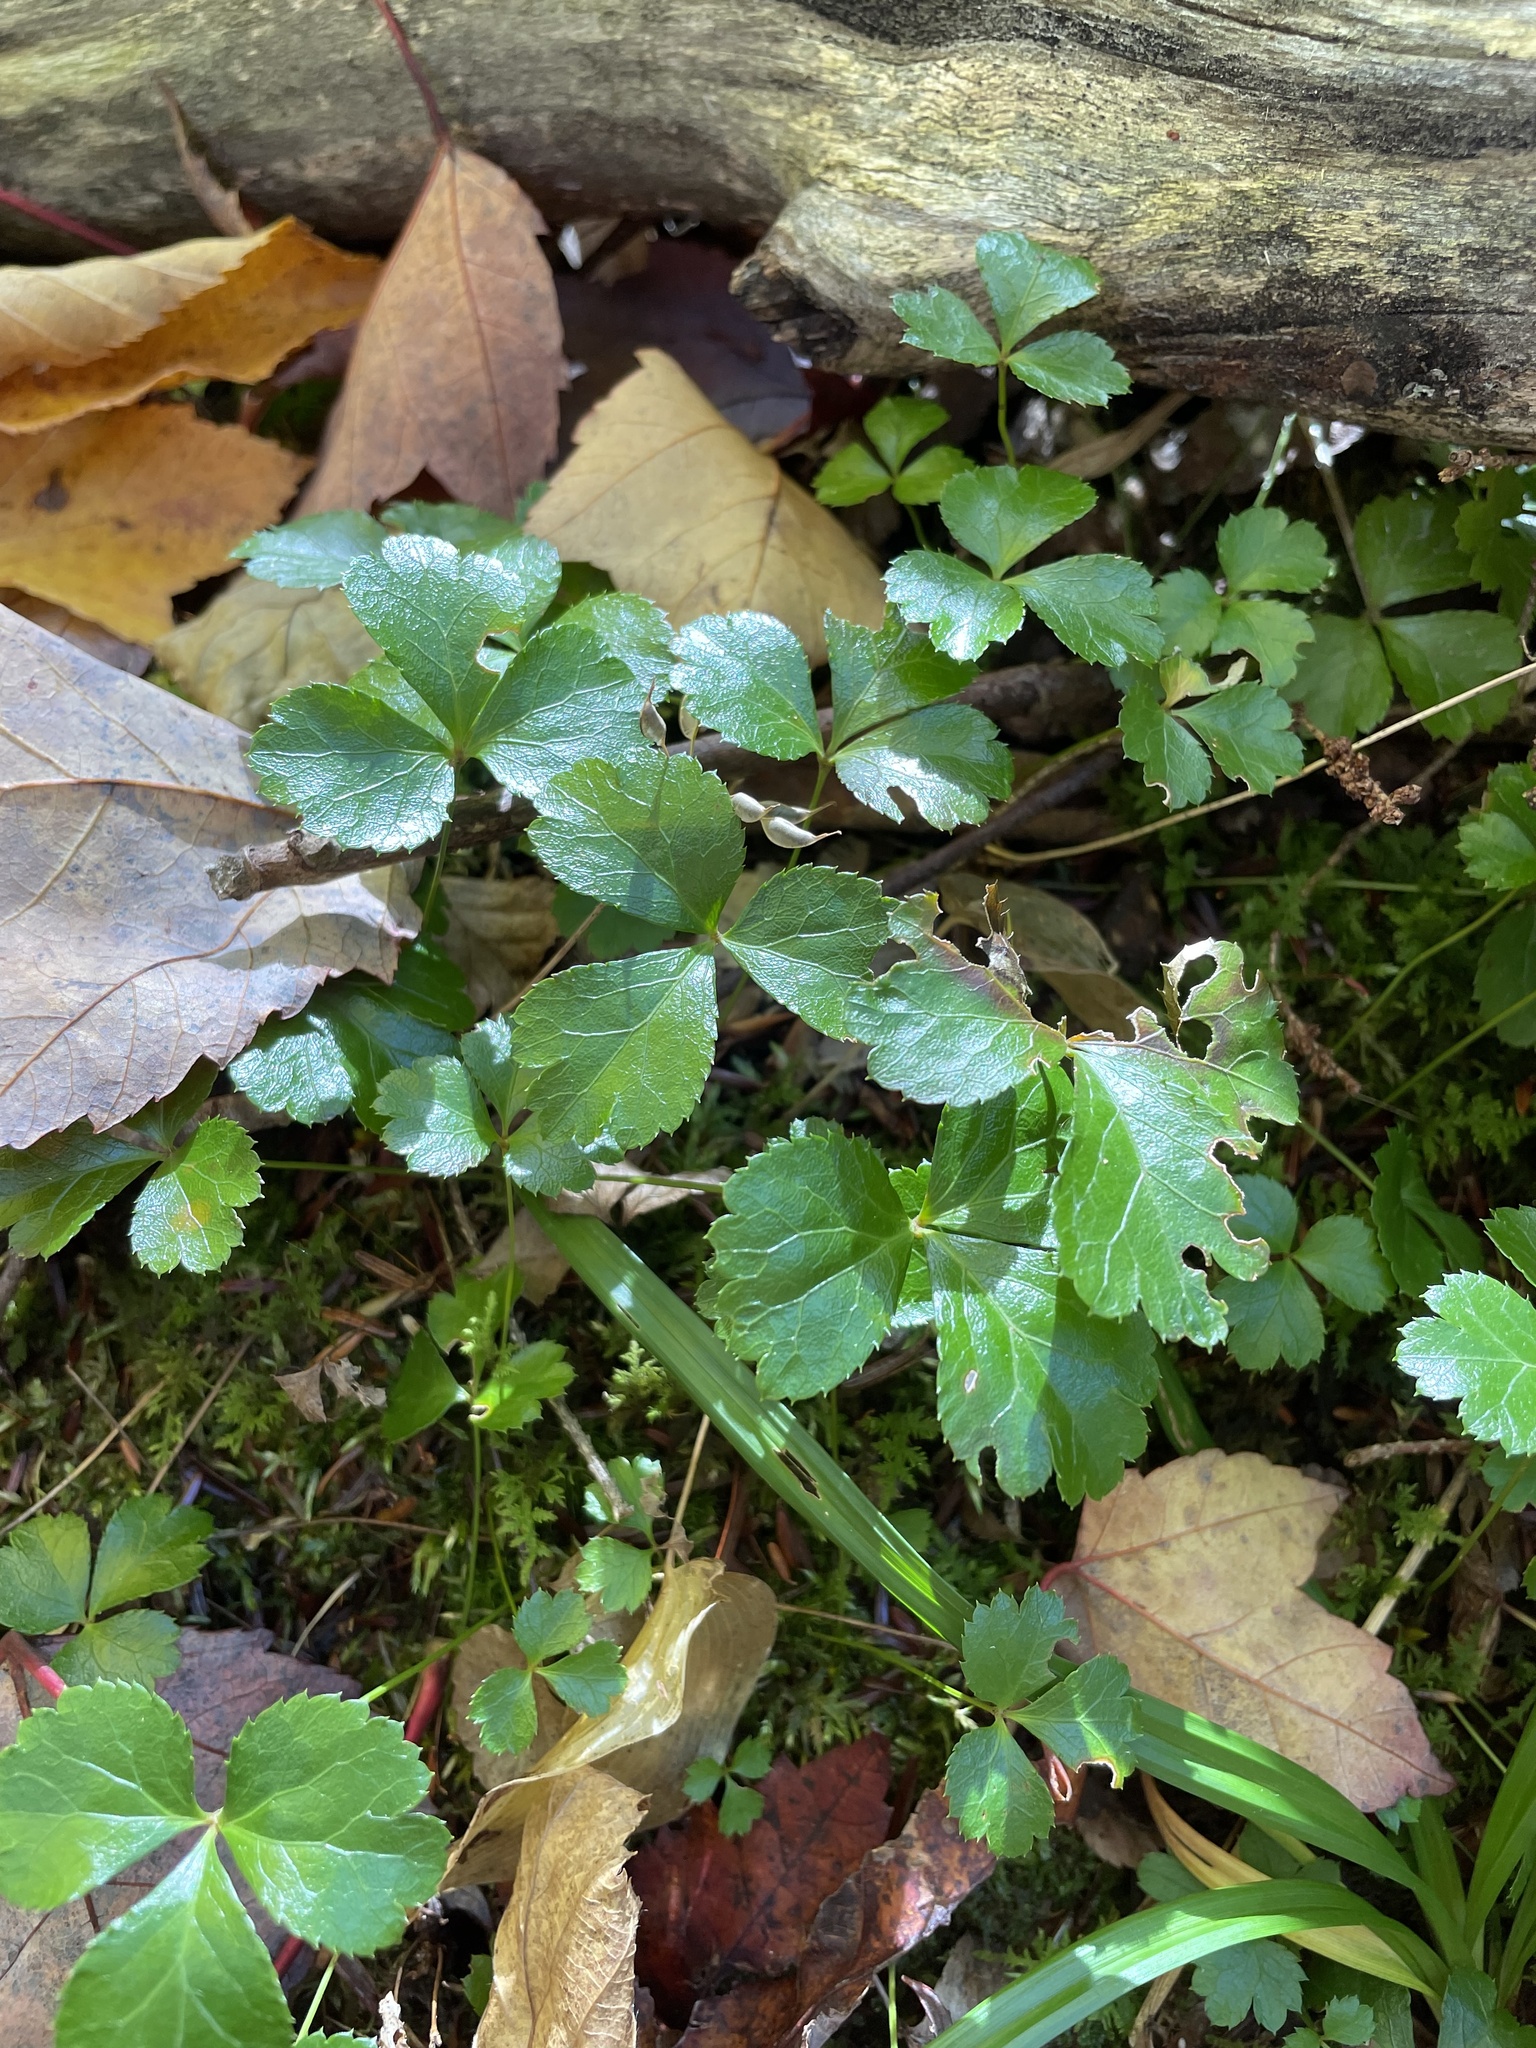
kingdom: Plantae
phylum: Tracheophyta
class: Magnoliopsida
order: Ranunculales
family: Ranunculaceae
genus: Coptis
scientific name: Coptis trifolia
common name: Canker-root
